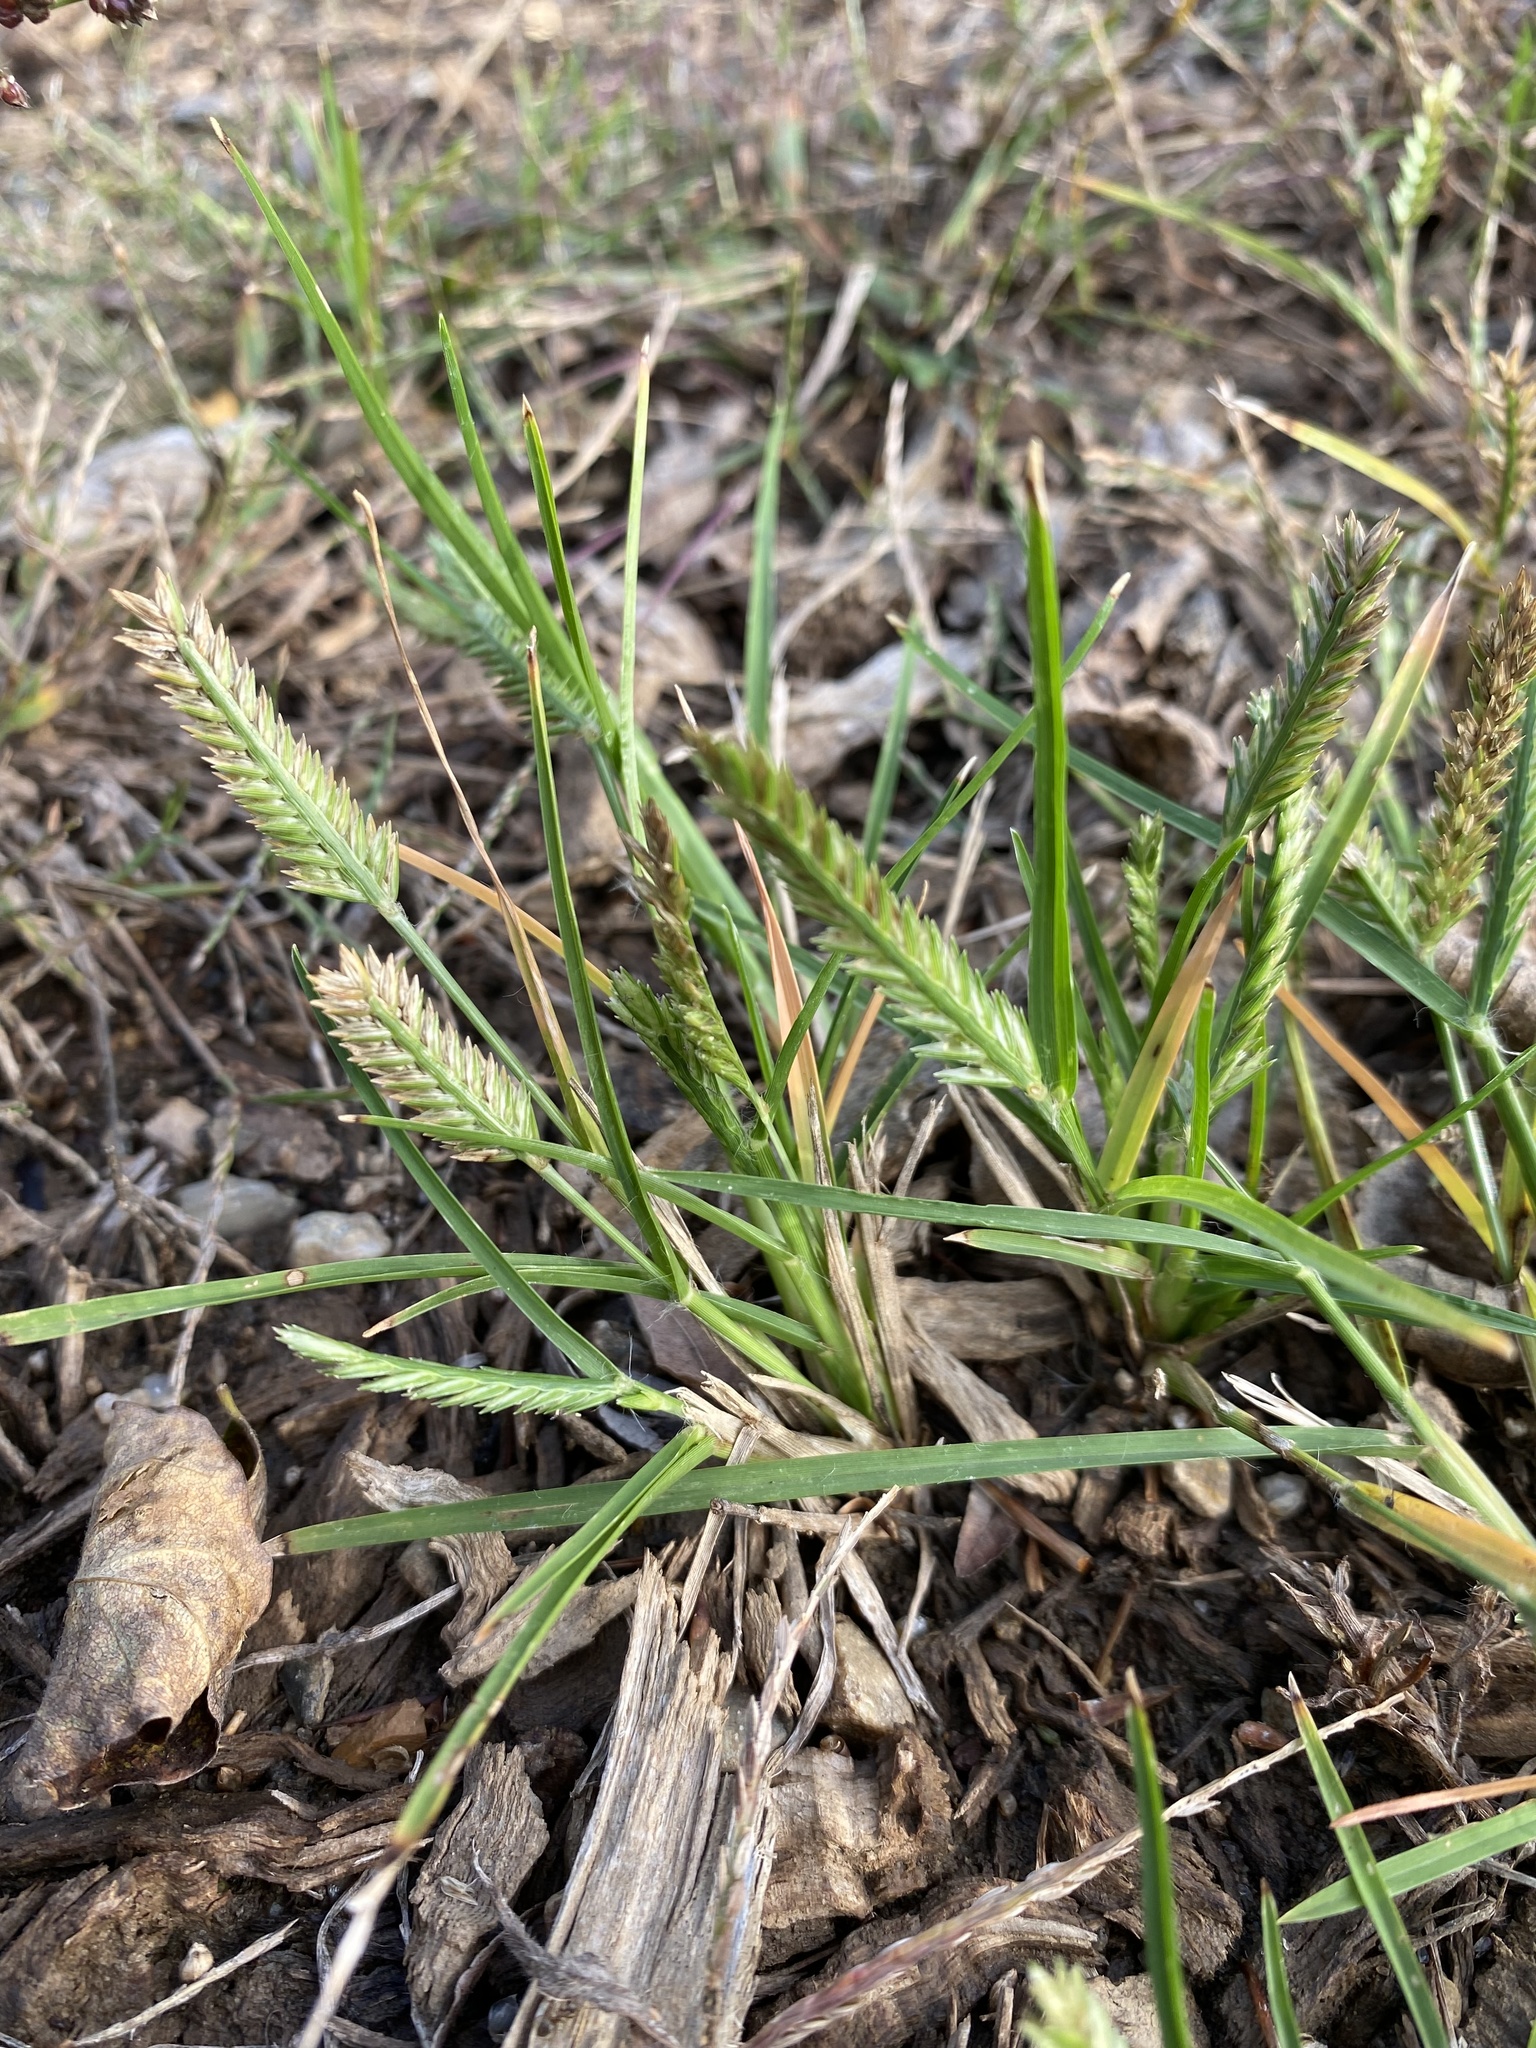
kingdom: Plantae
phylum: Tracheophyta
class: Liliopsida
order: Poales
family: Poaceae
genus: Eleusine
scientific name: Eleusine indica
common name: Yard-grass
